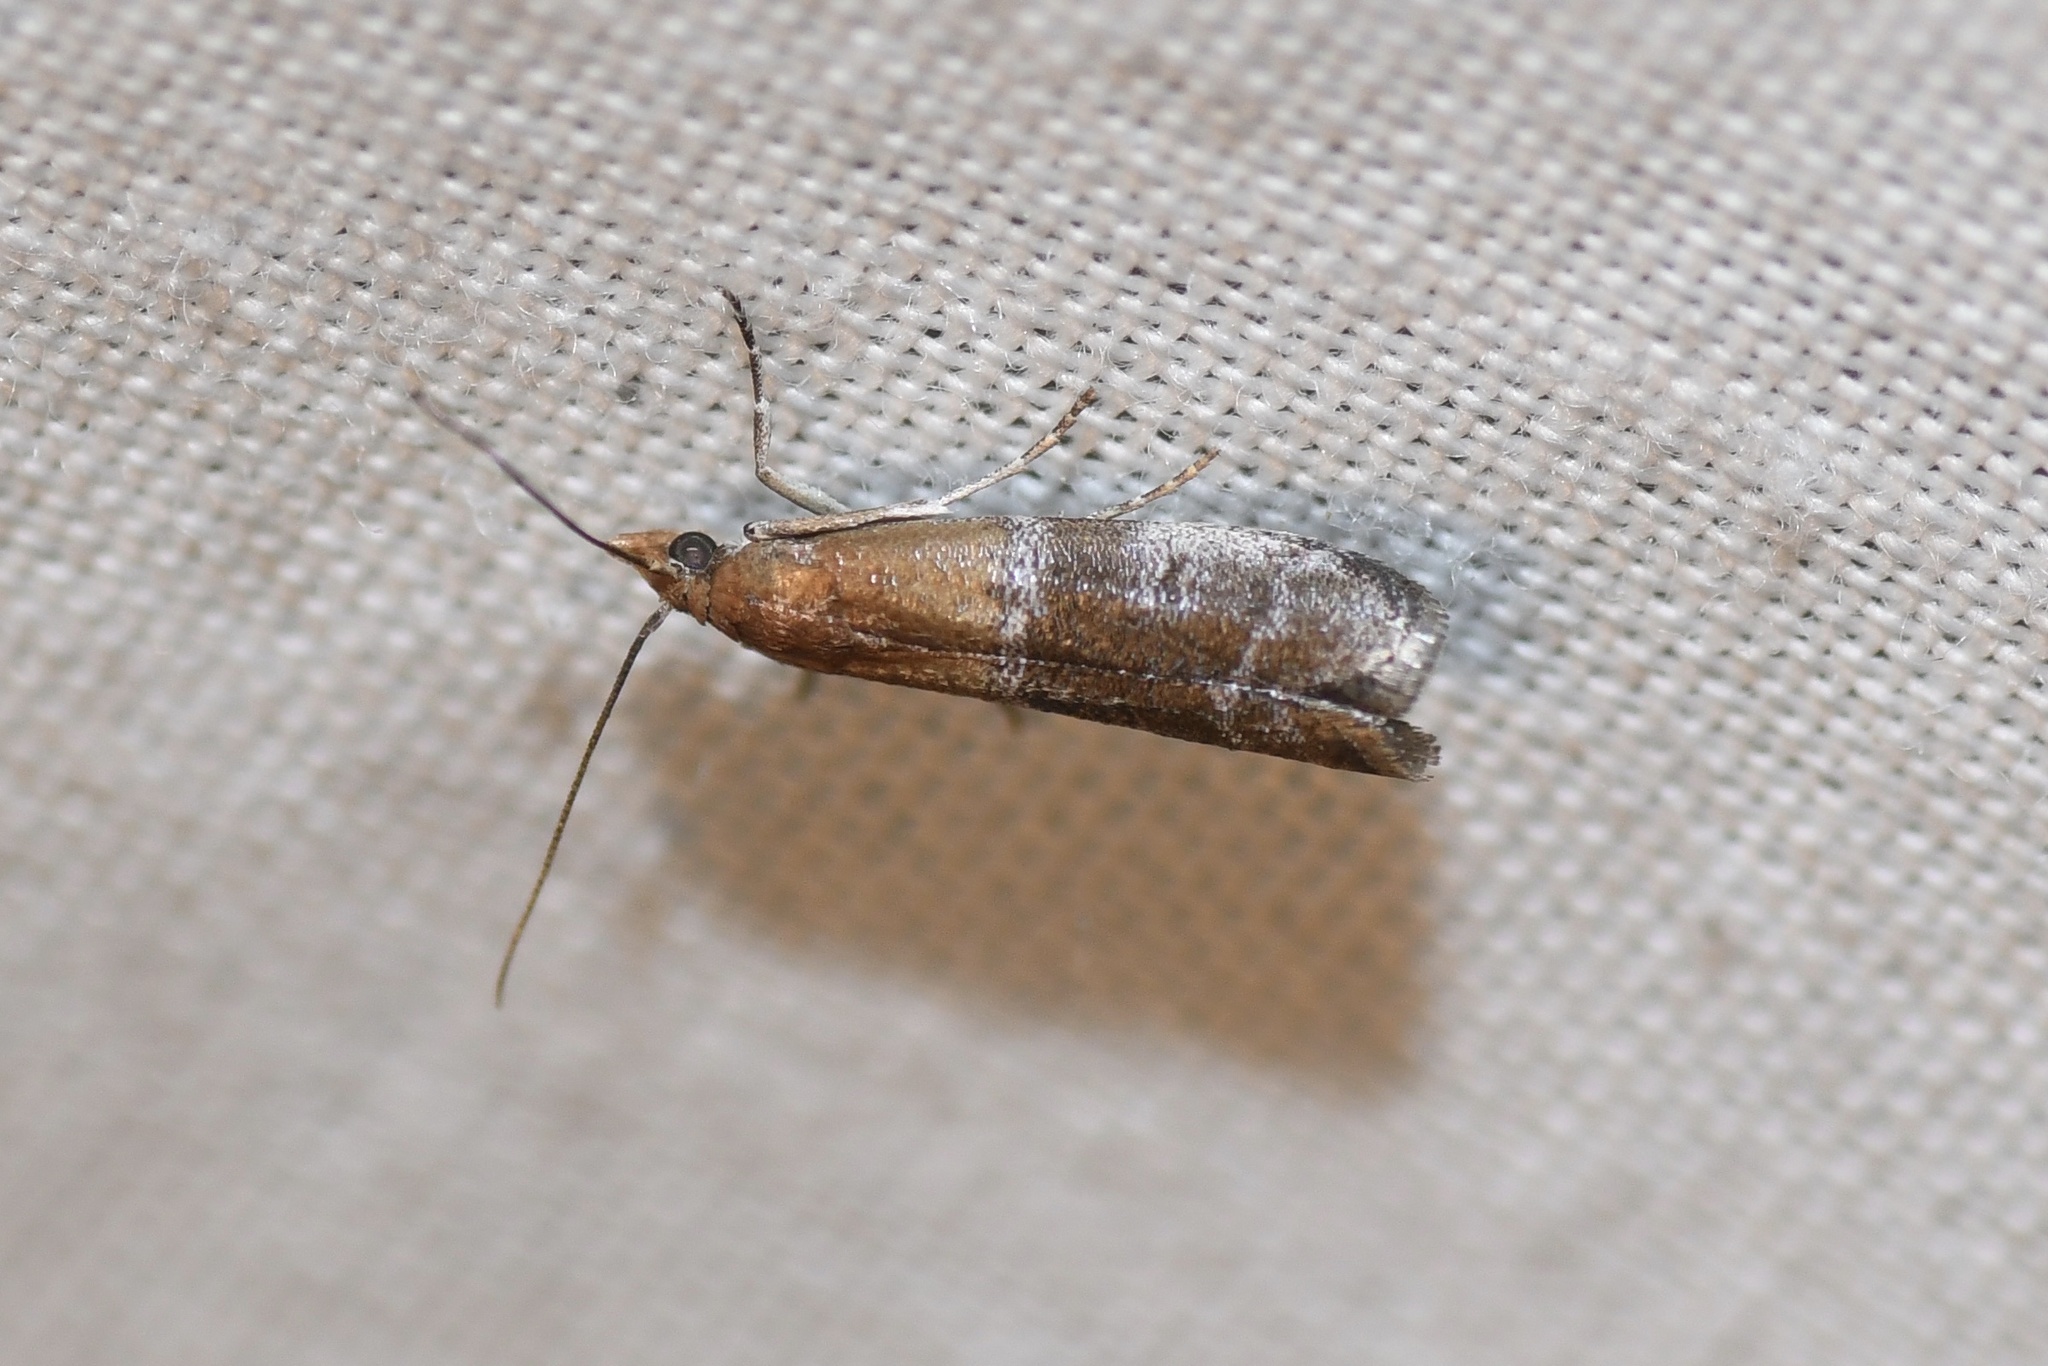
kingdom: Animalia
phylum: Arthropoda
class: Insecta
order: Lepidoptera
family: Pyralidae
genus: Moodna
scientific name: Moodna pallidostrinella
